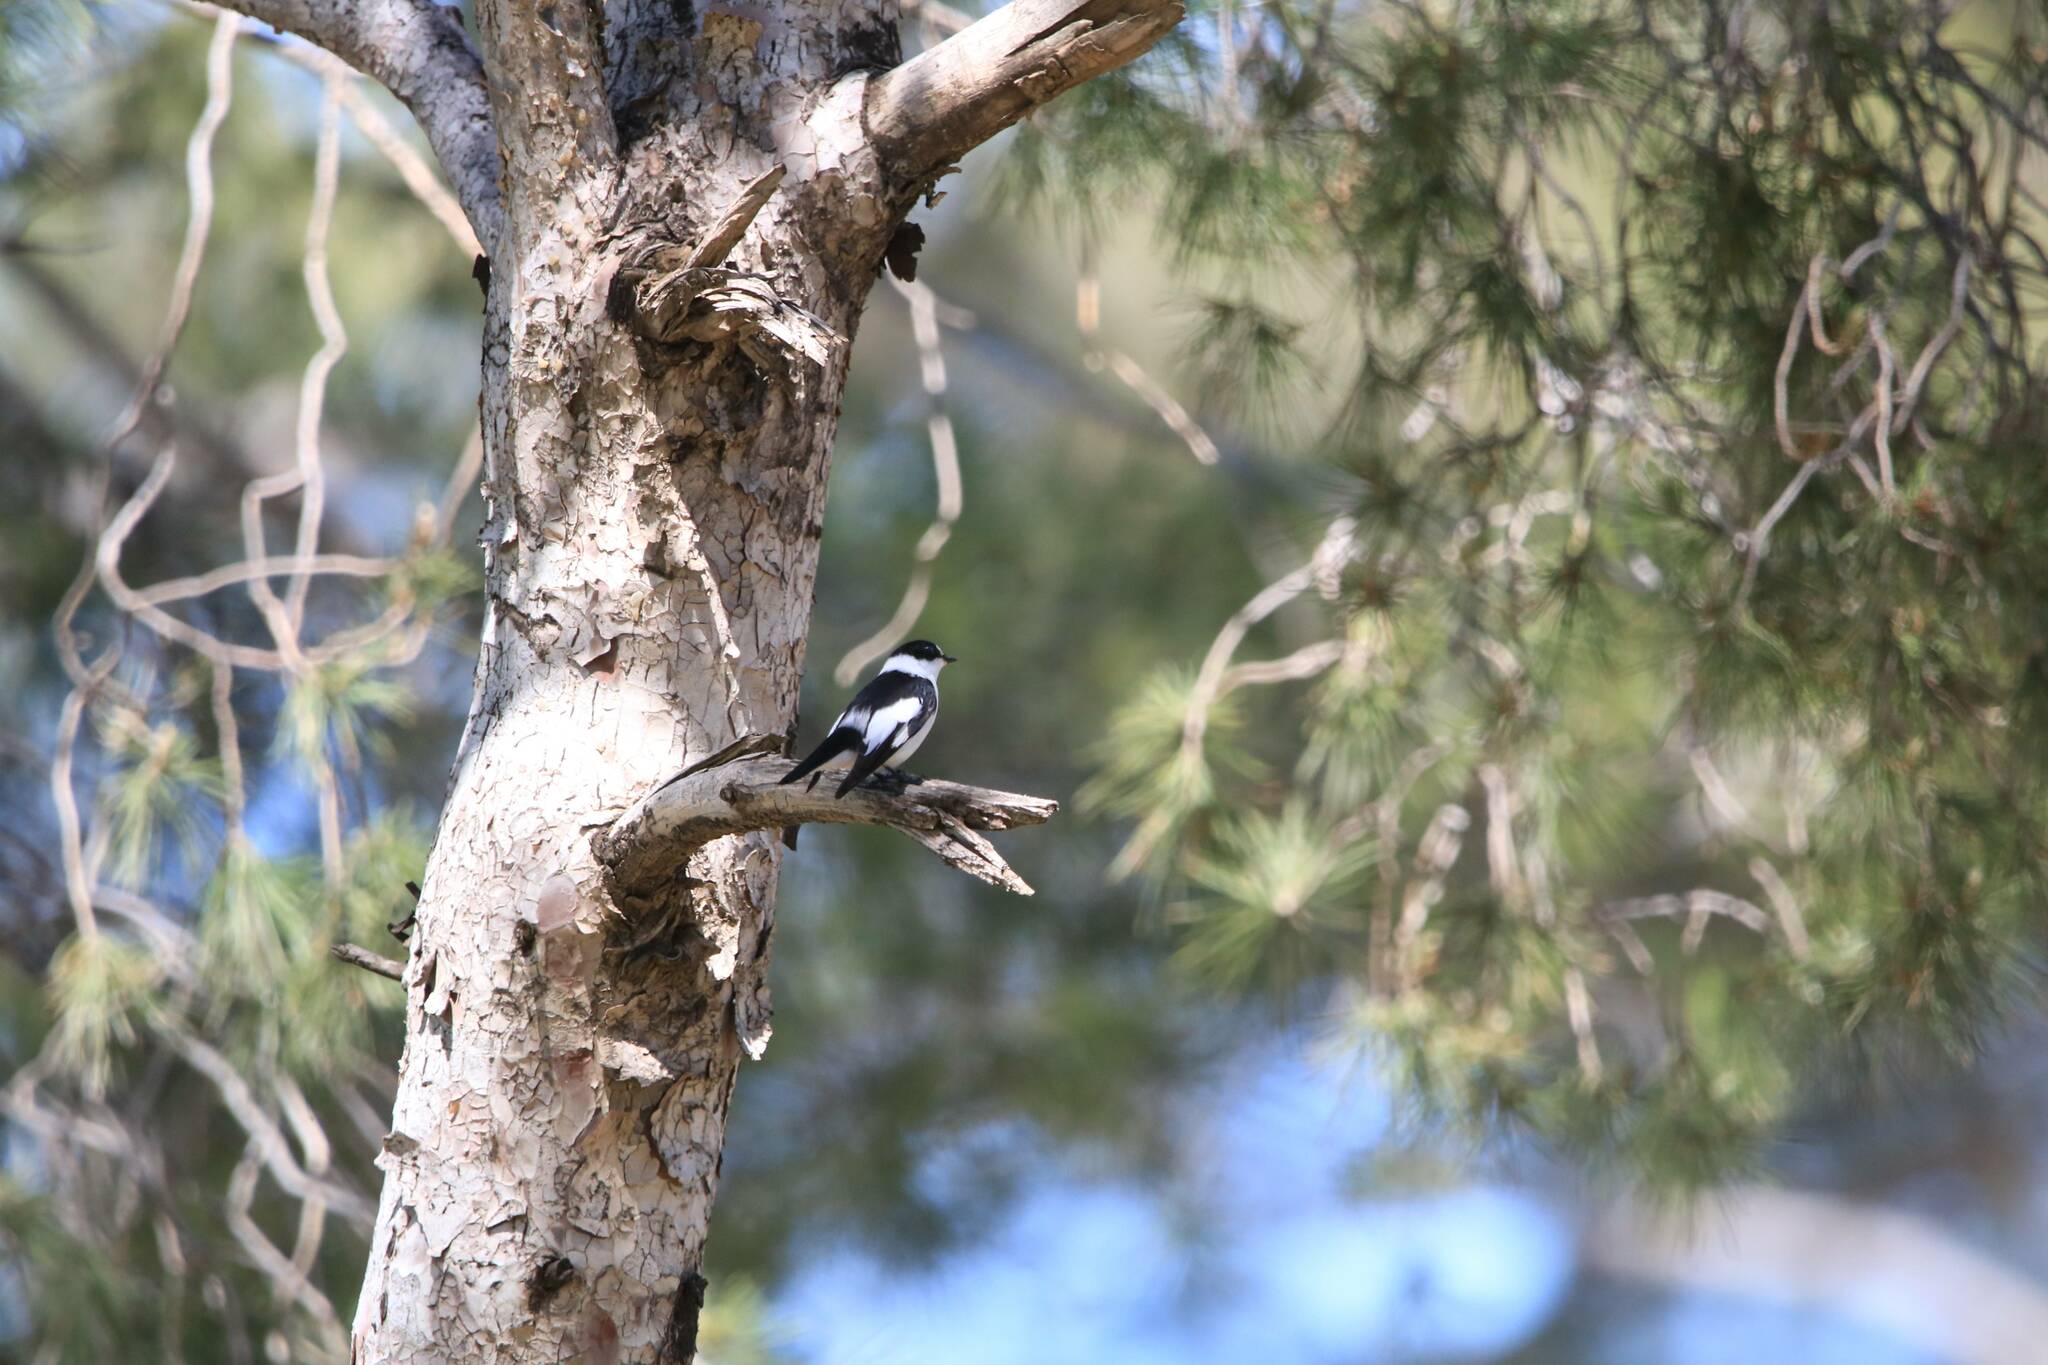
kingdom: Animalia
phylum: Chordata
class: Aves
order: Passeriformes
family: Muscicapidae
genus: Ficedula
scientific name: Ficedula albicollis
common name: Collared flycatcher
